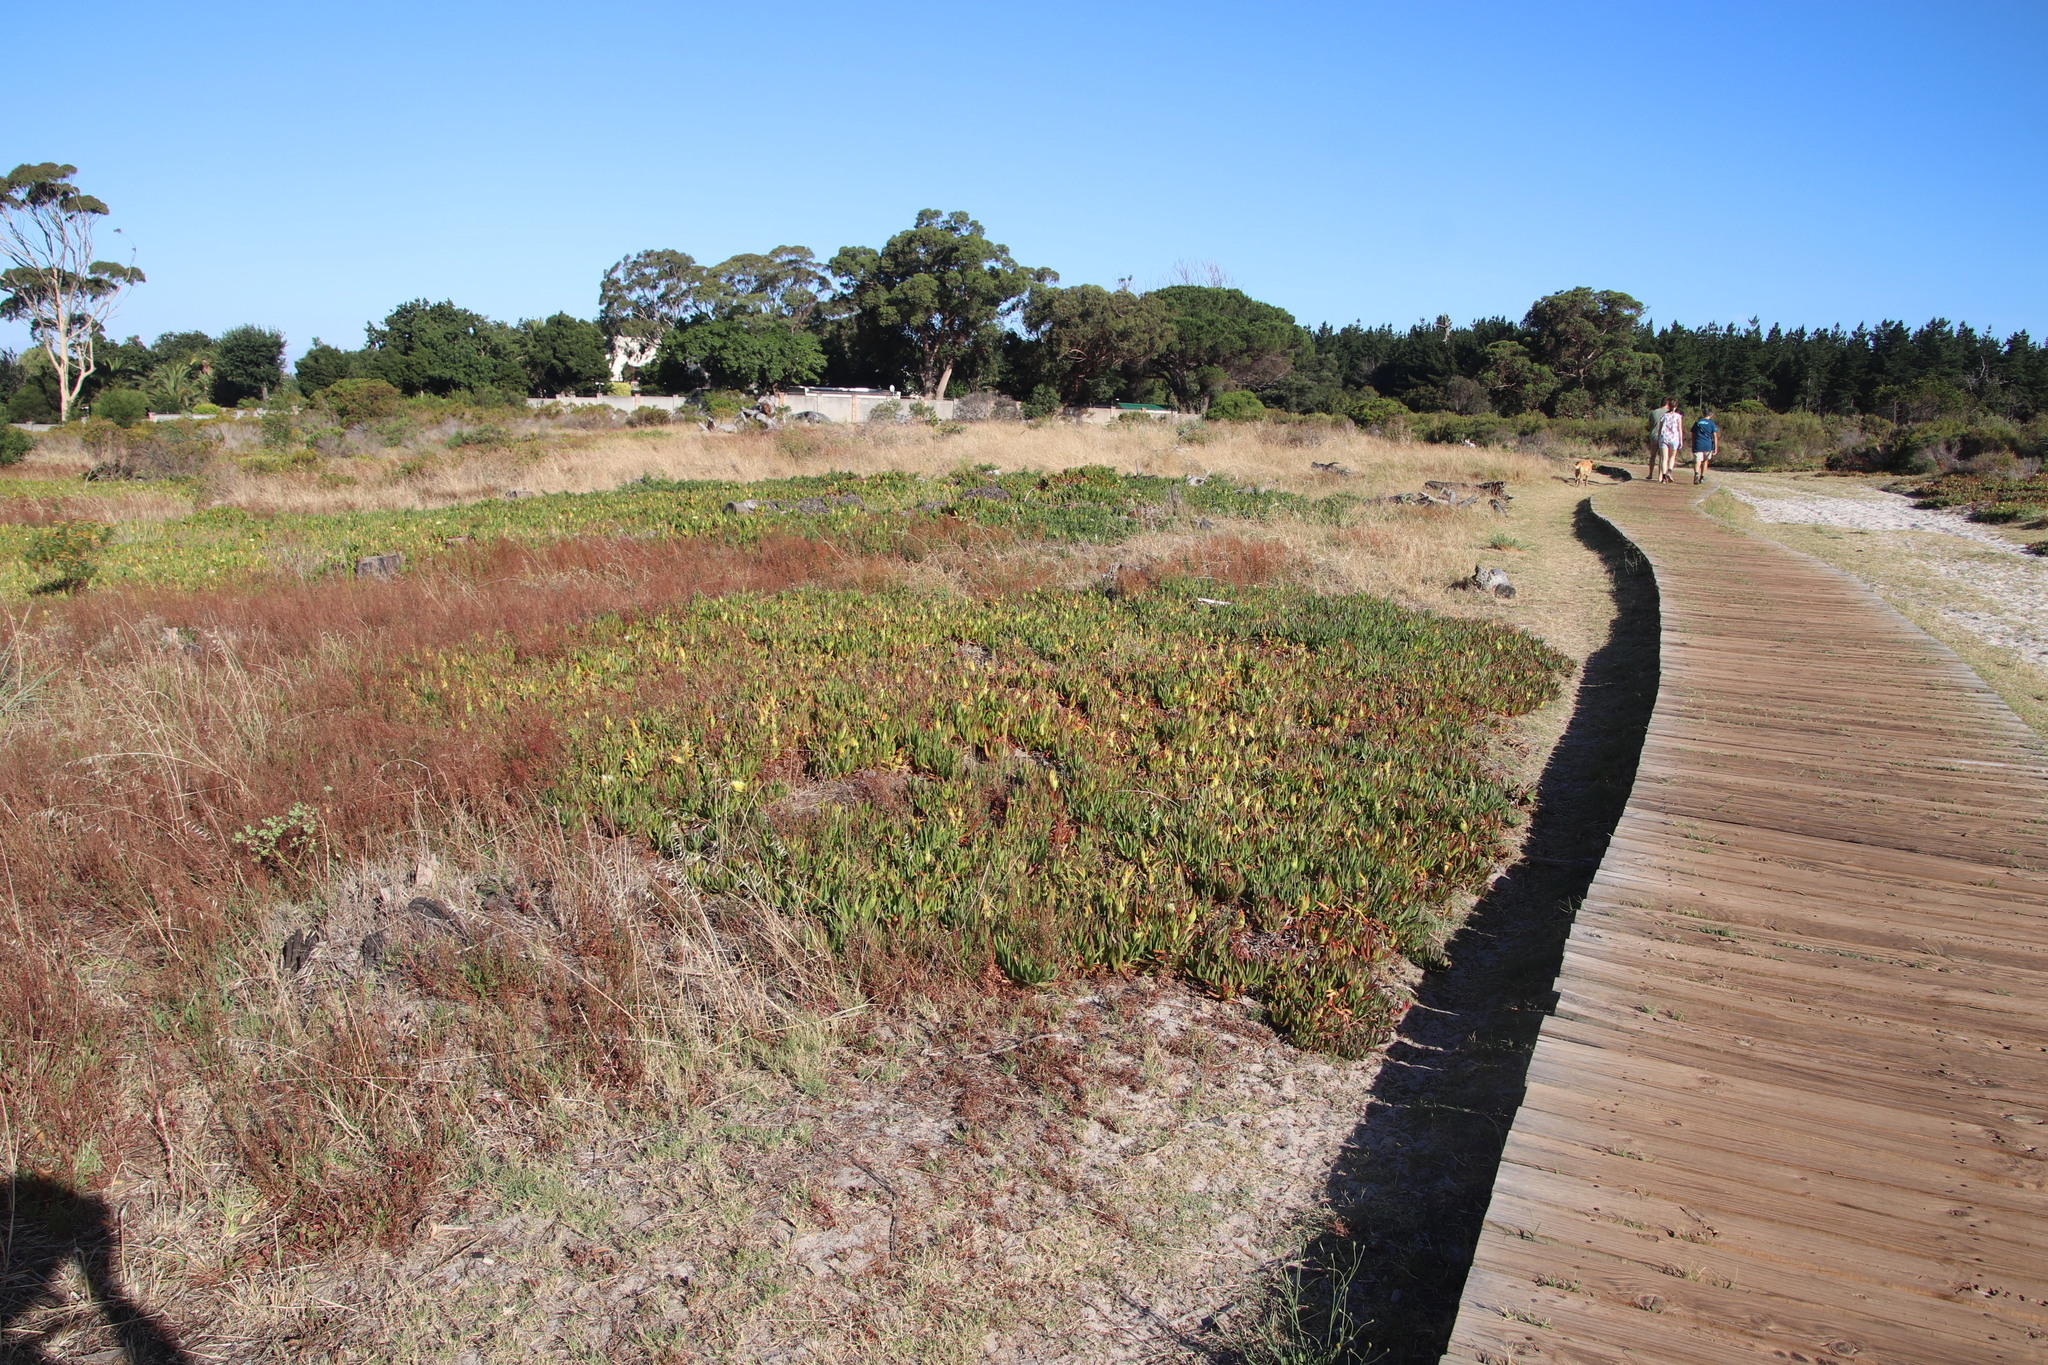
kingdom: Plantae
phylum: Tracheophyta
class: Magnoliopsida
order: Caryophyllales
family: Aizoaceae
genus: Carpobrotus
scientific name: Carpobrotus edulis
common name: Hottentot-fig
